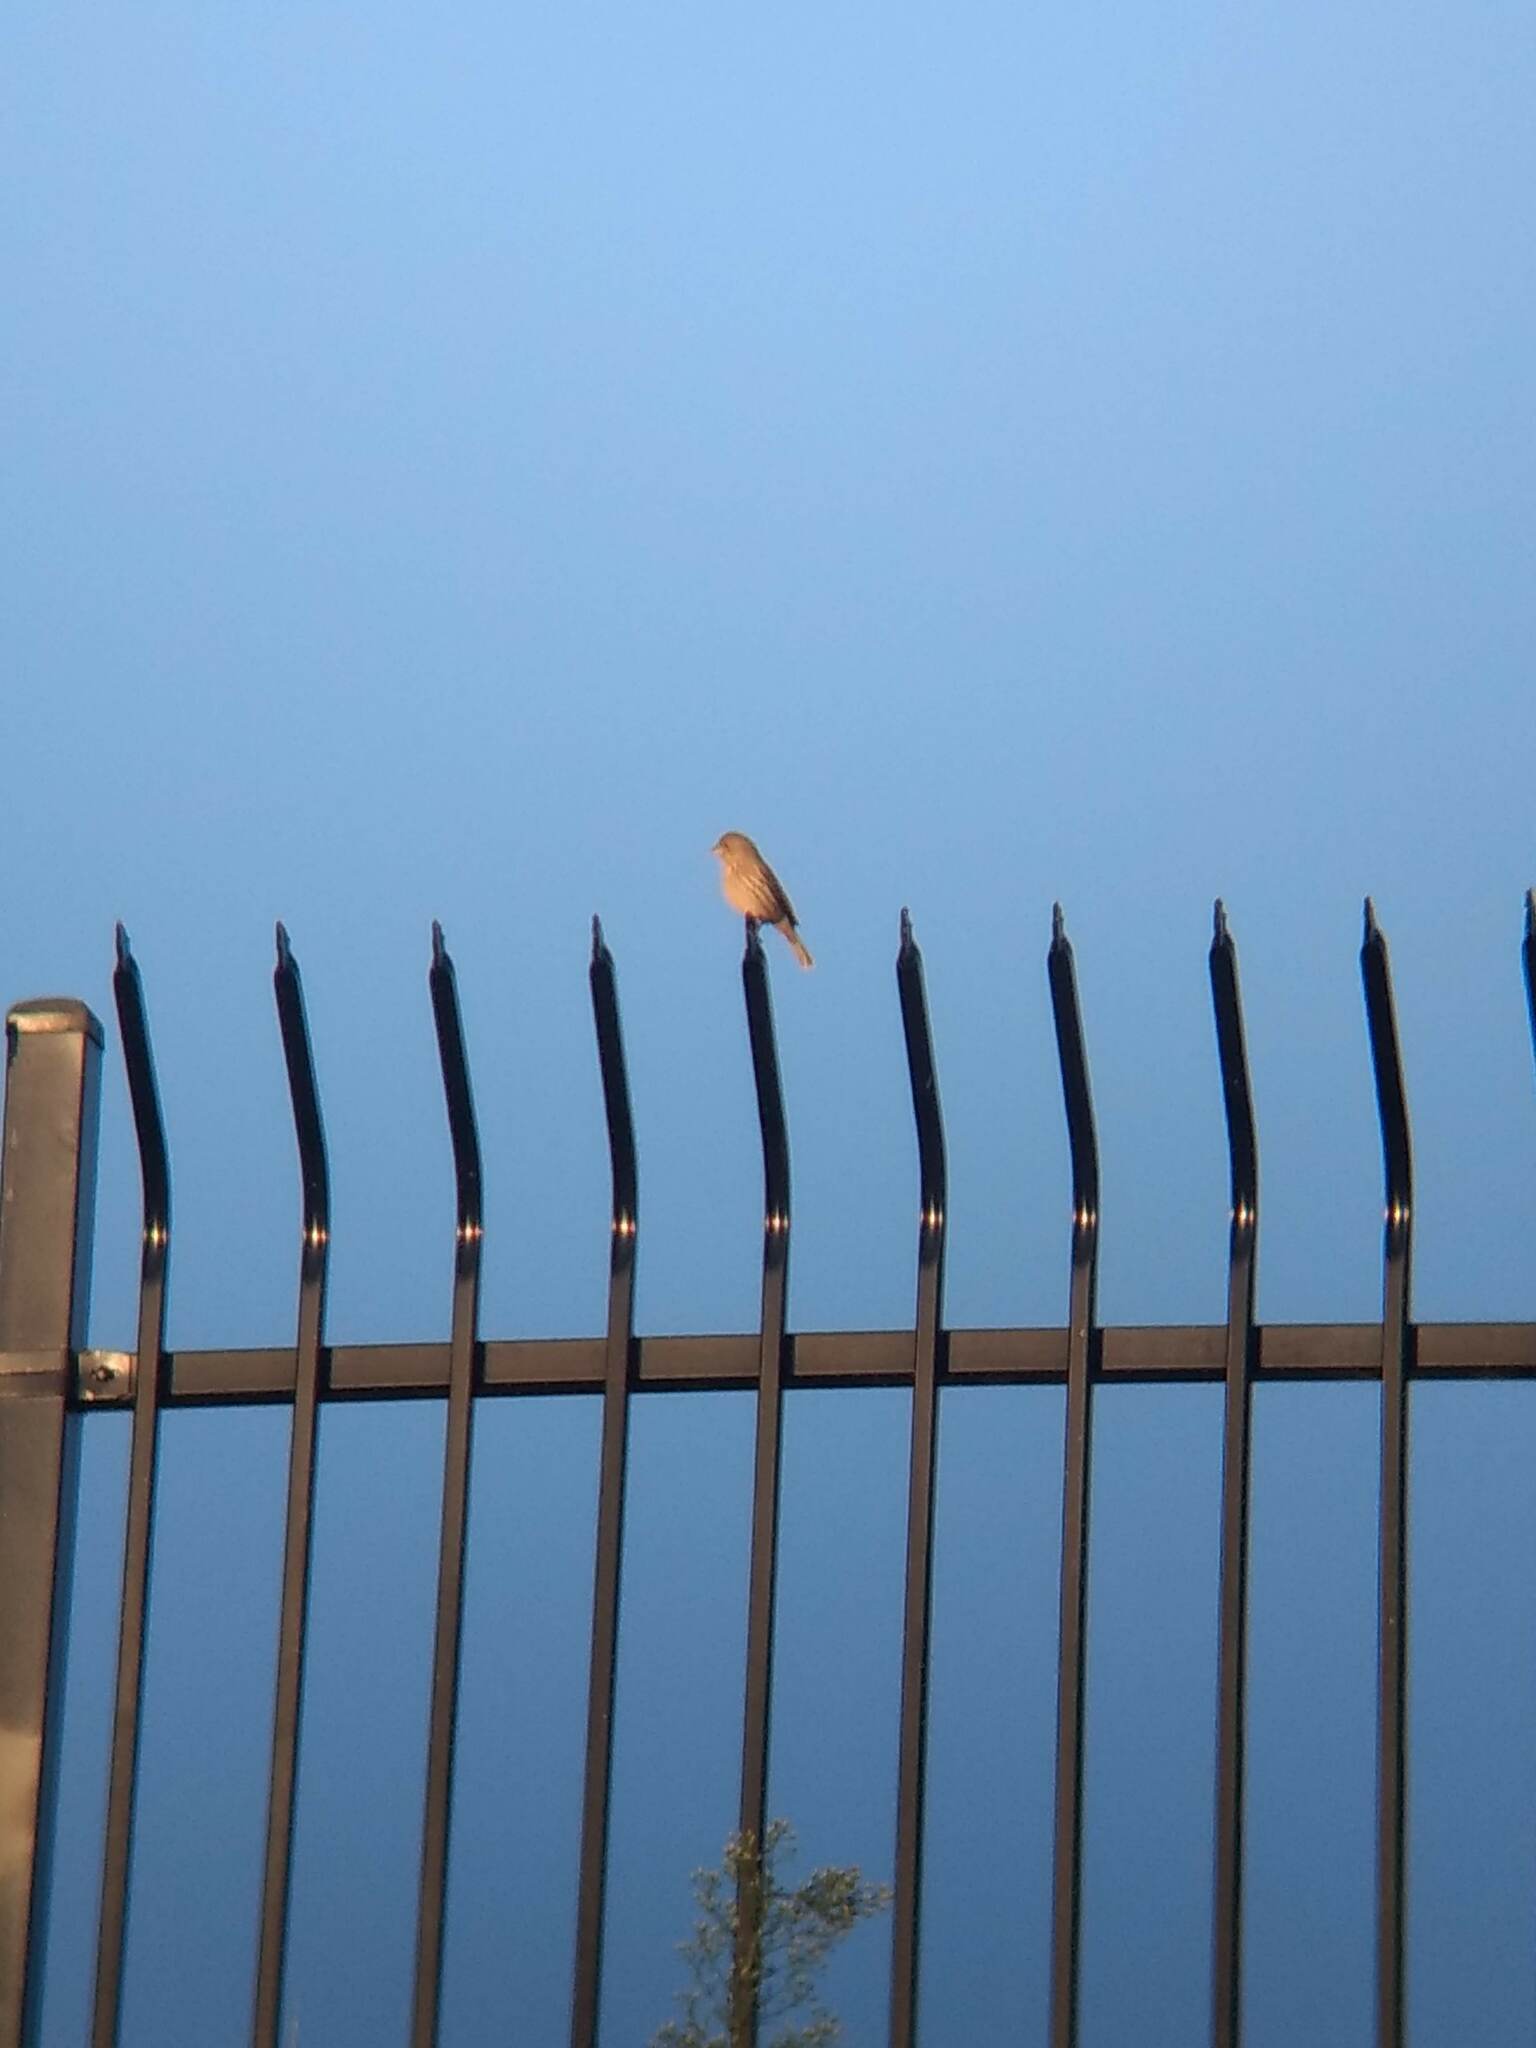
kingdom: Animalia
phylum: Chordata
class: Aves
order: Passeriformes
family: Fringillidae
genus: Haemorhous
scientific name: Haemorhous mexicanus
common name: House finch
